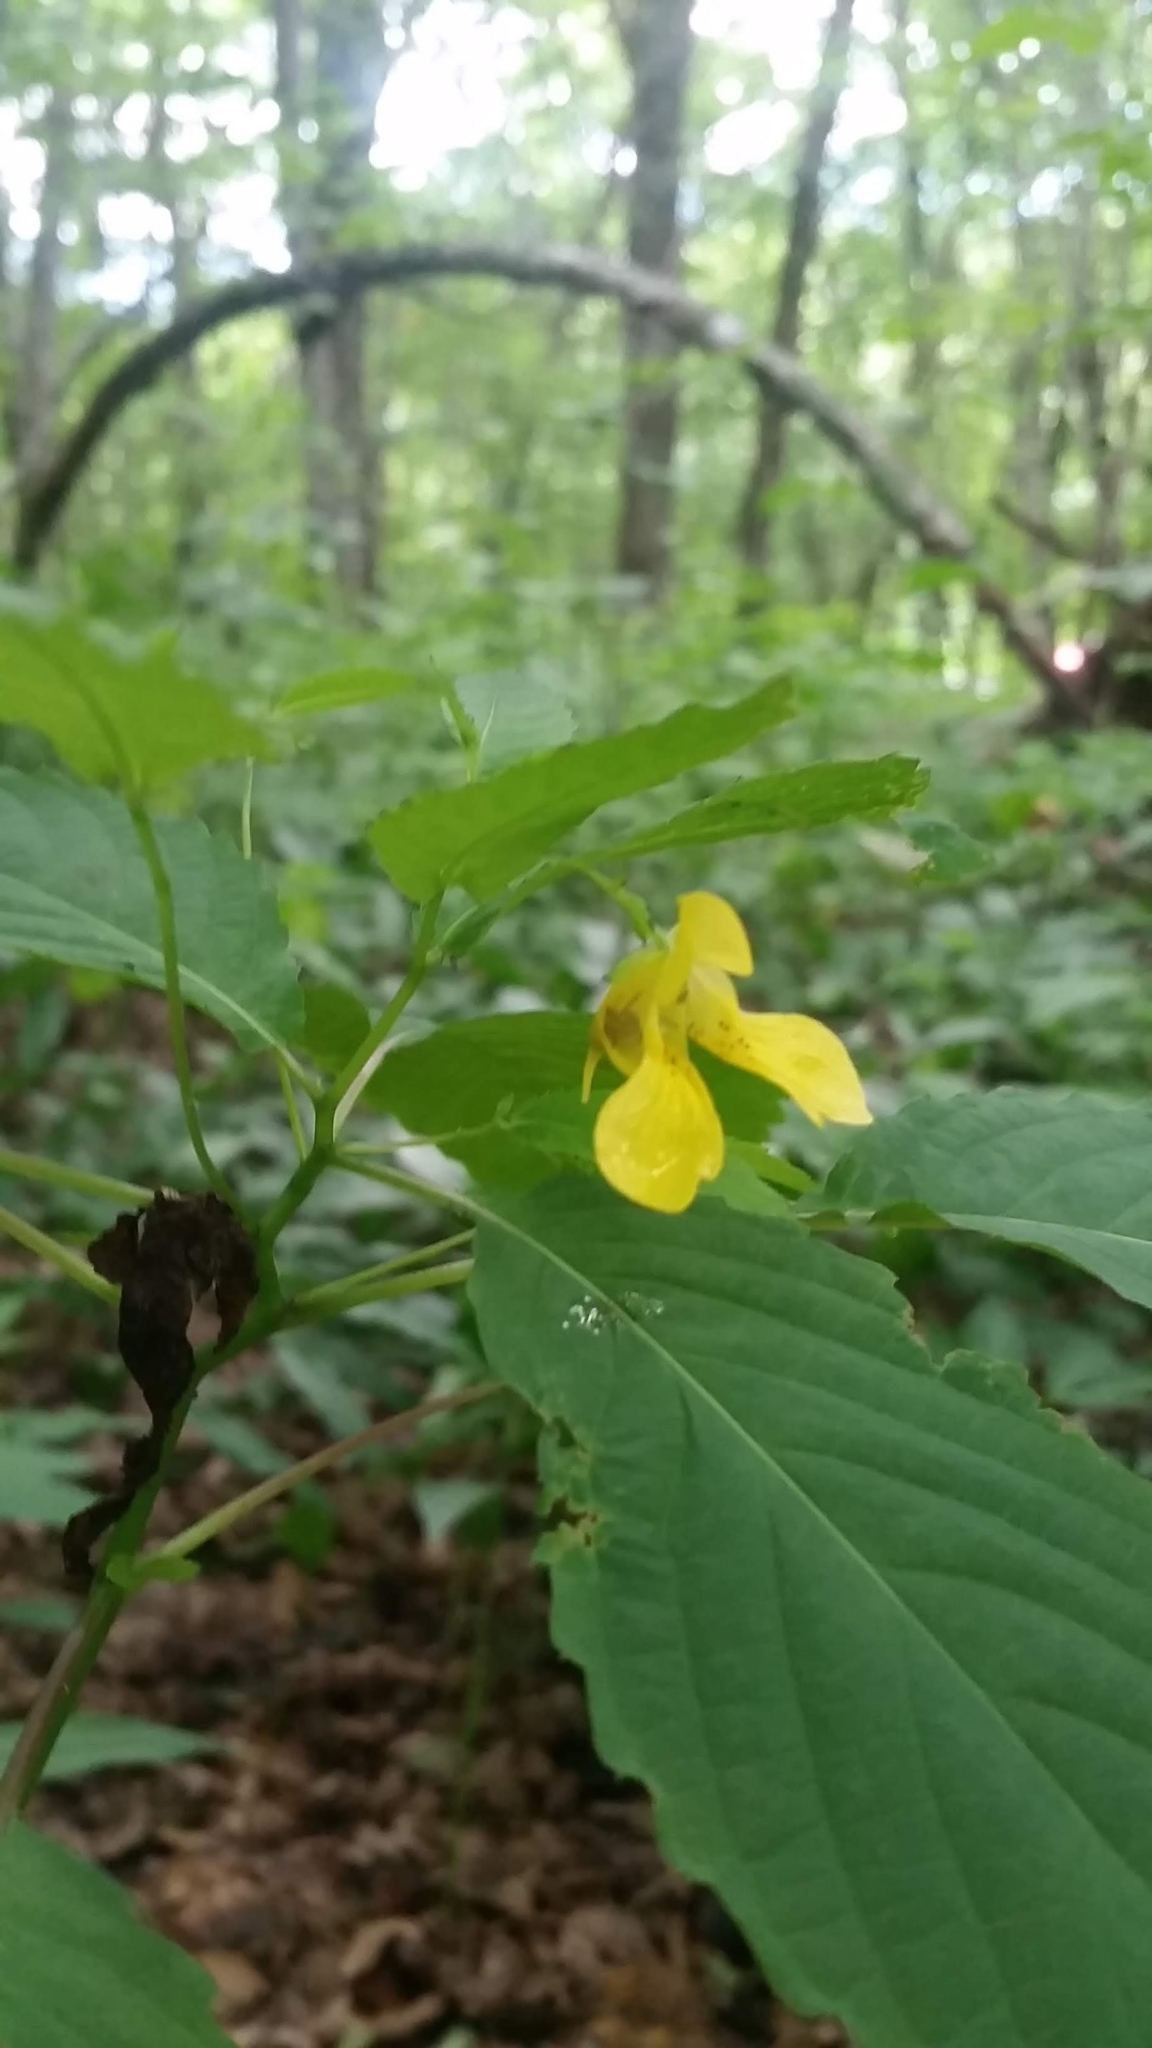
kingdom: Plantae
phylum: Tracheophyta
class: Magnoliopsida
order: Ericales
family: Balsaminaceae
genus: Impatiens
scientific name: Impatiens pallida
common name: Pale snapweed
